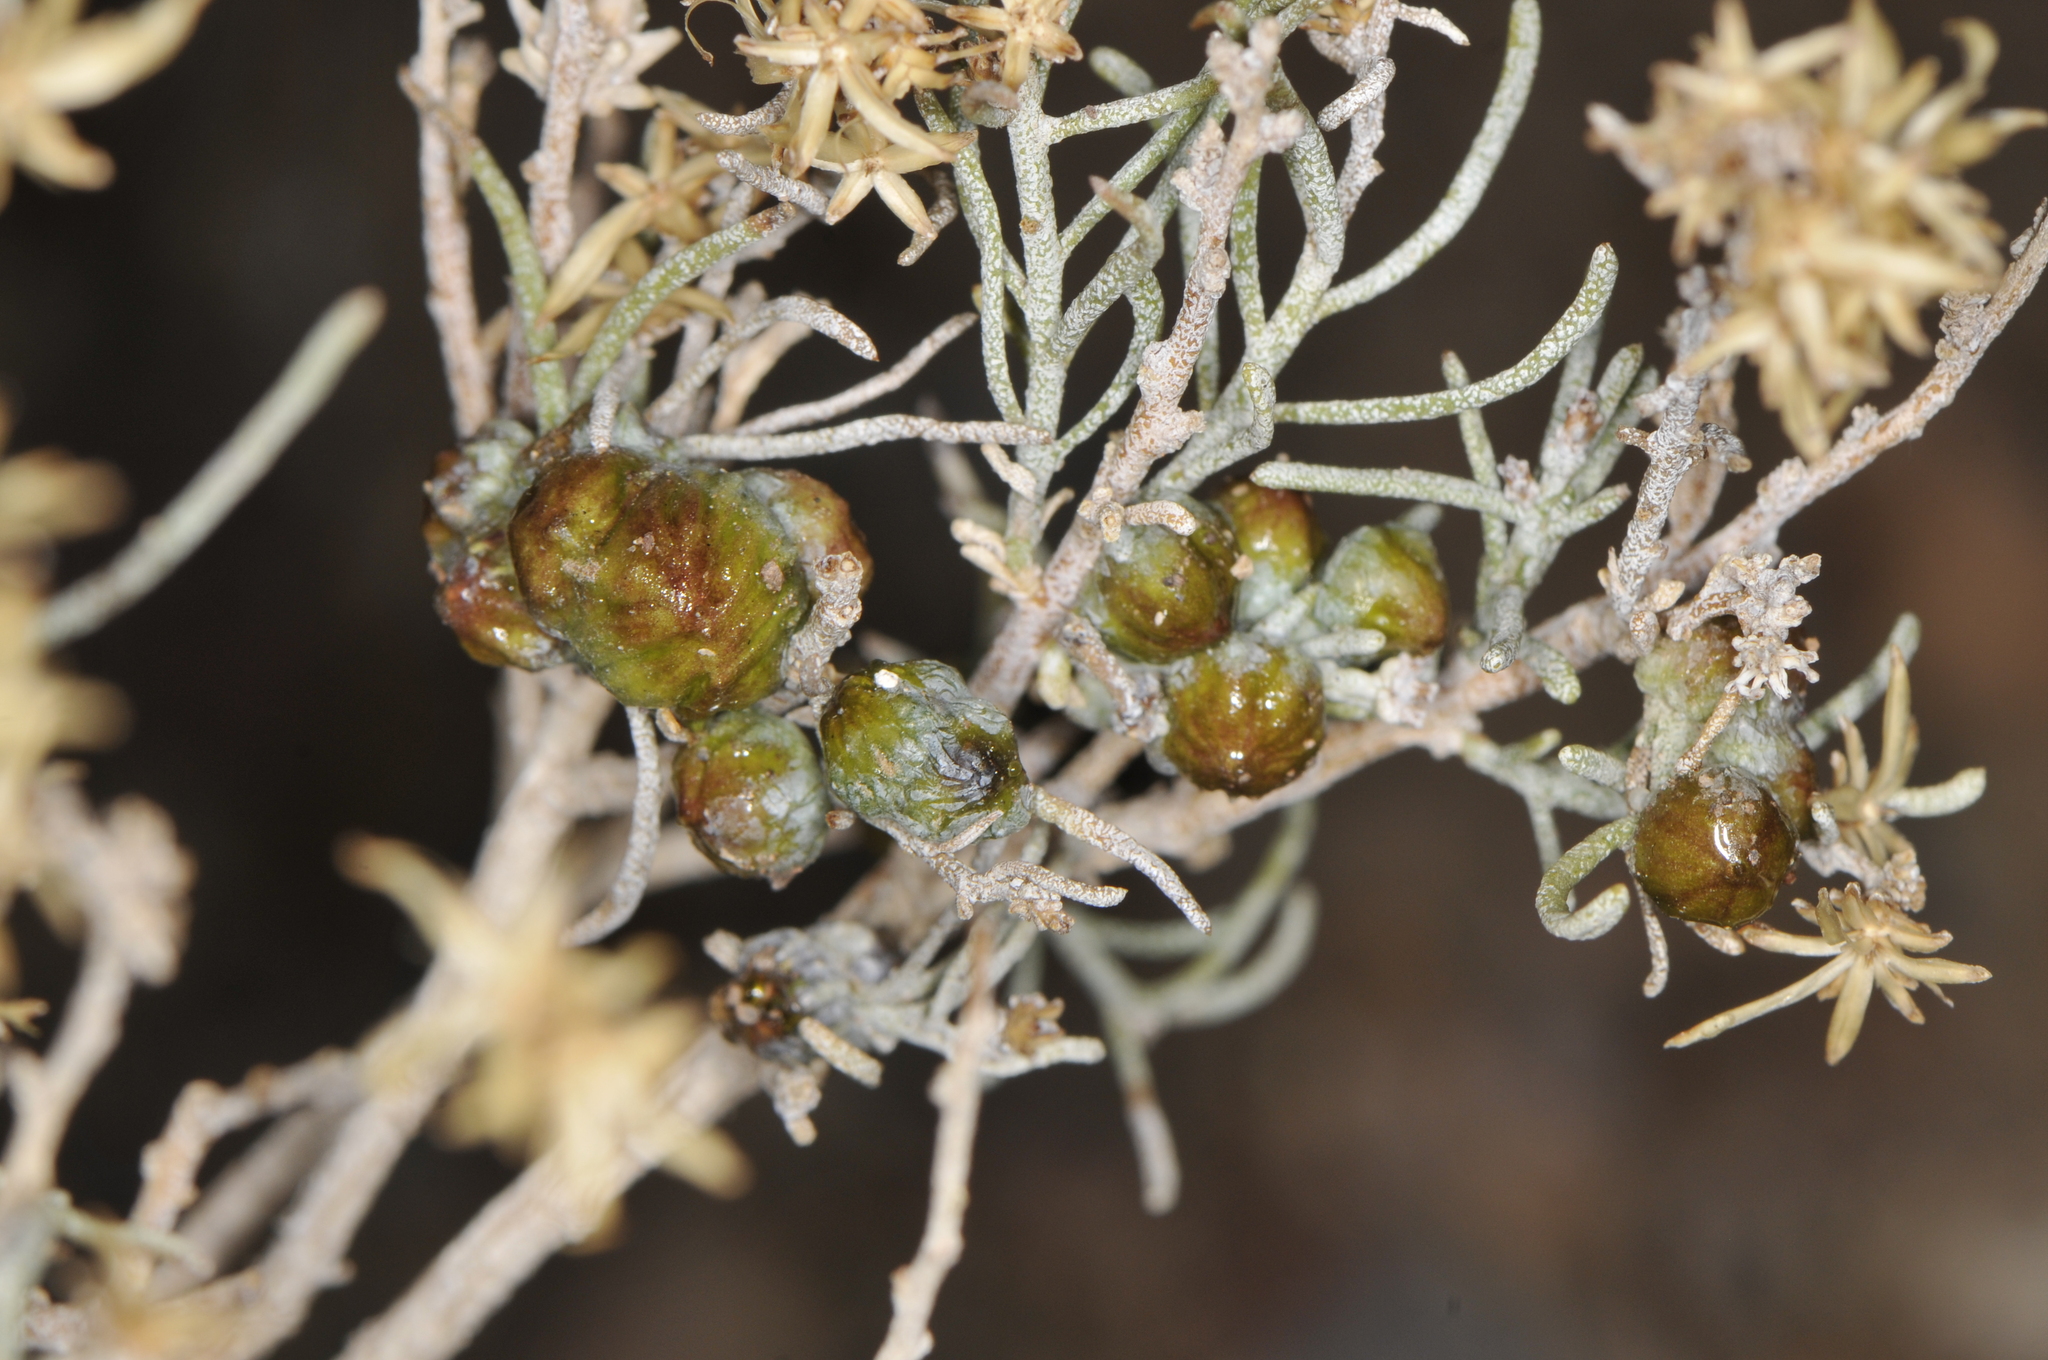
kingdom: Animalia
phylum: Arthropoda
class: Insecta
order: Diptera
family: Cecidomyiidae
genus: Rhopalomyia
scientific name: Rhopalomyia glutinosa
